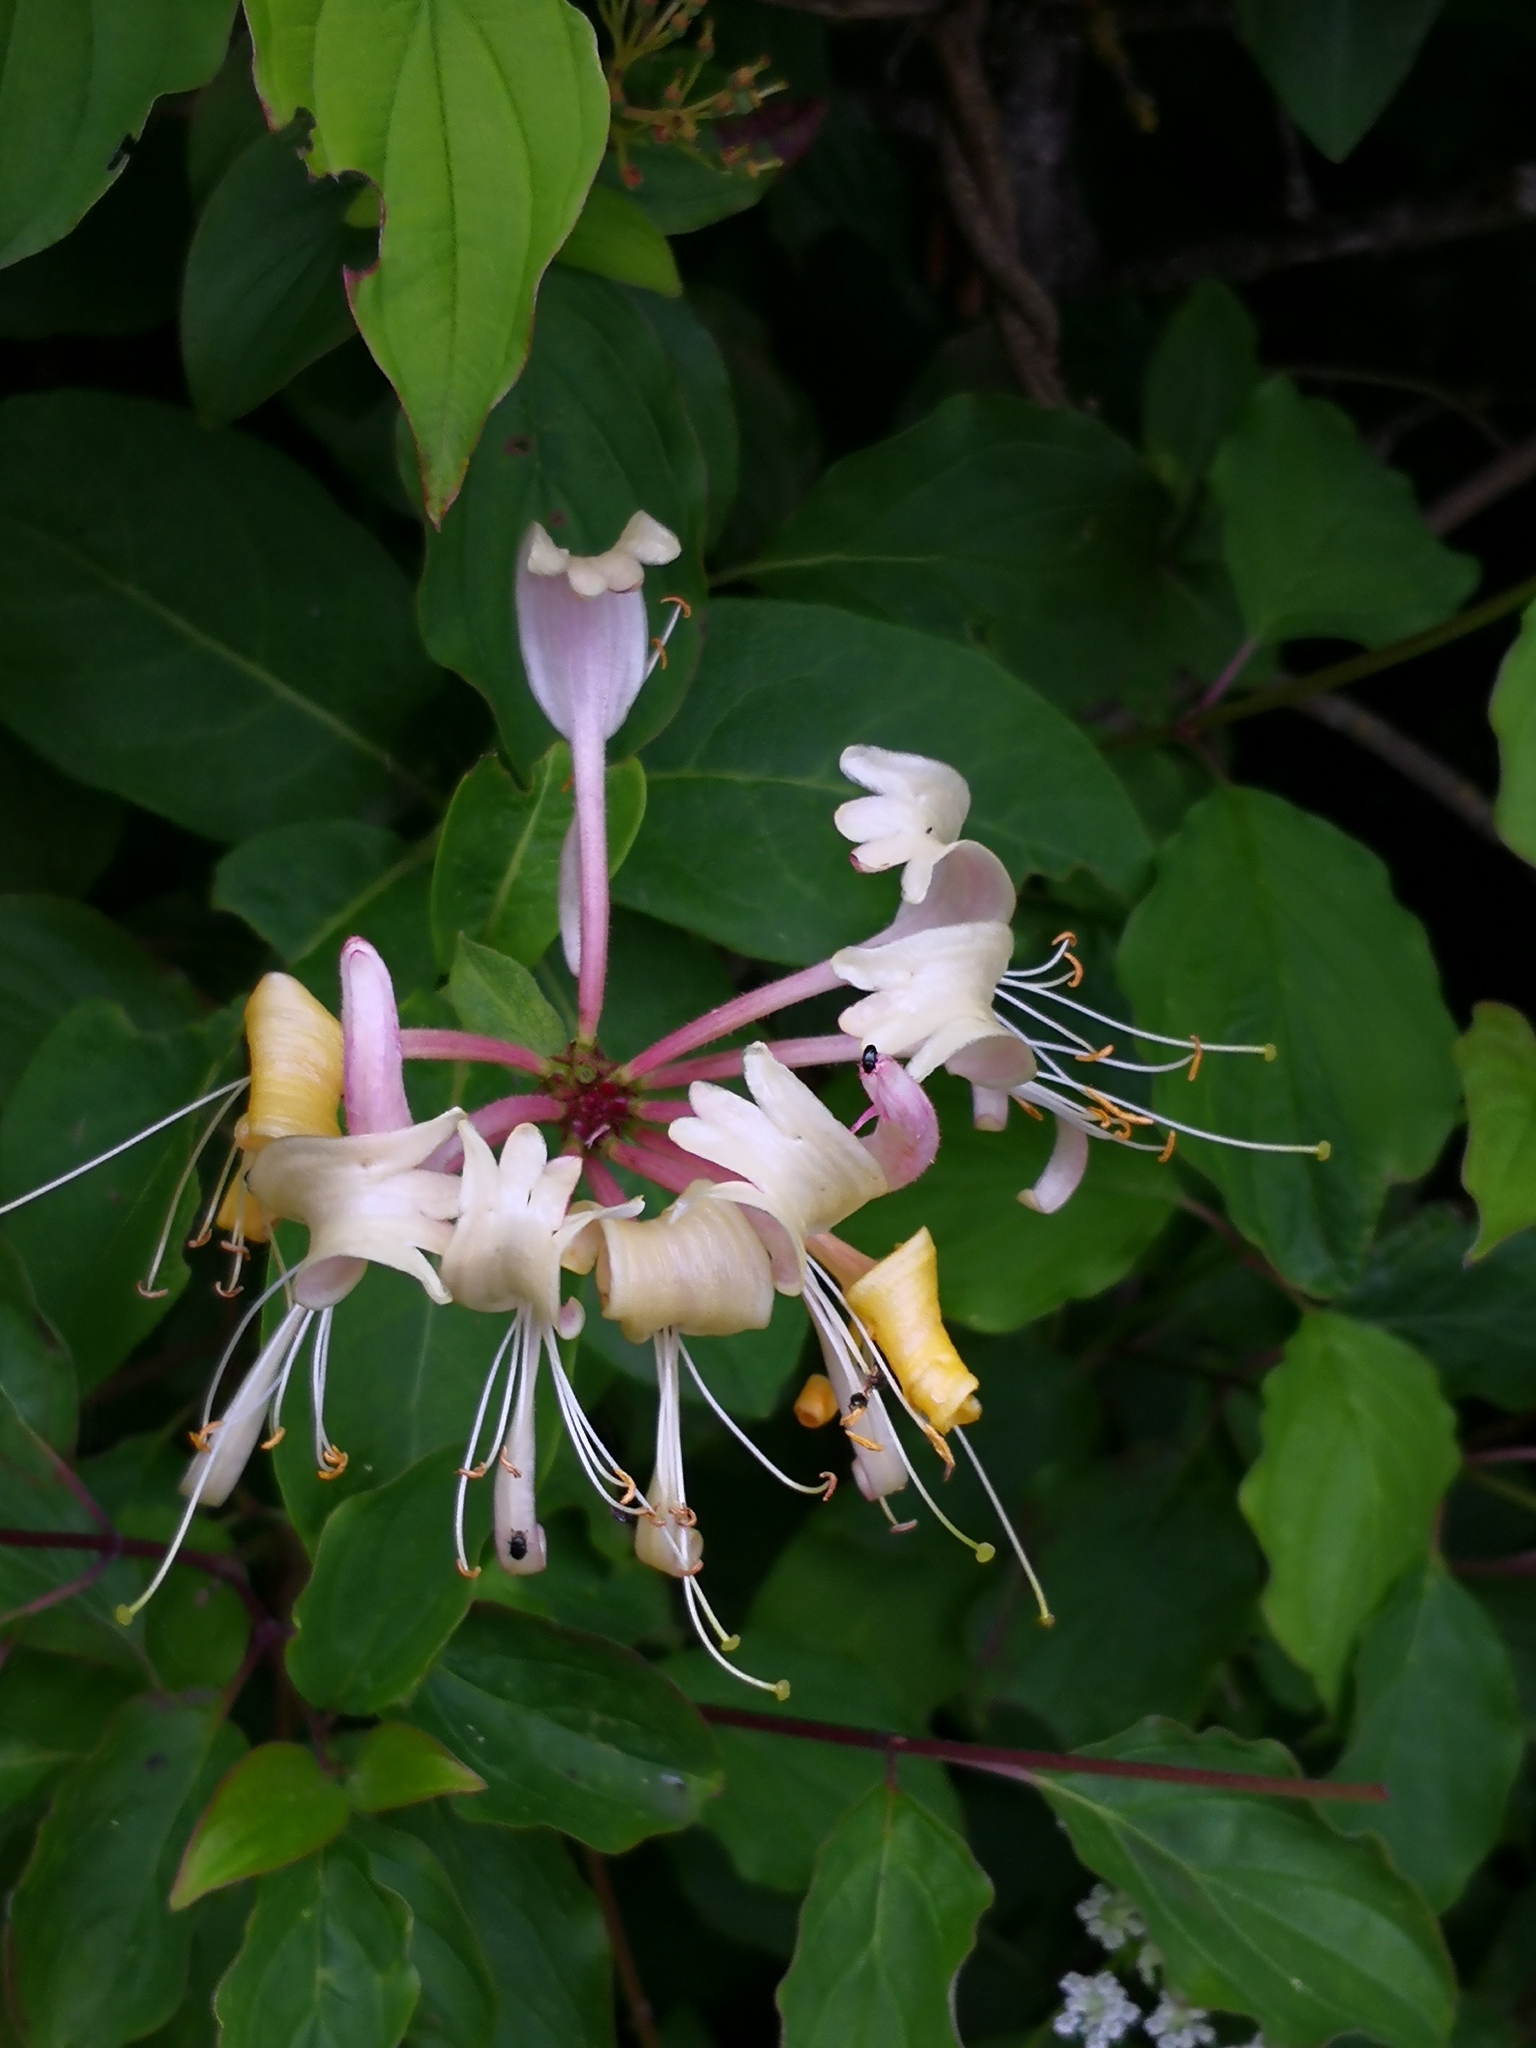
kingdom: Plantae
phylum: Tracheophyta
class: Magnoliopsida
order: Dipsacales
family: Caprifoliaceae
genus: Lonicera
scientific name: Lonicera periclymenum
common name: European honeysuckle
